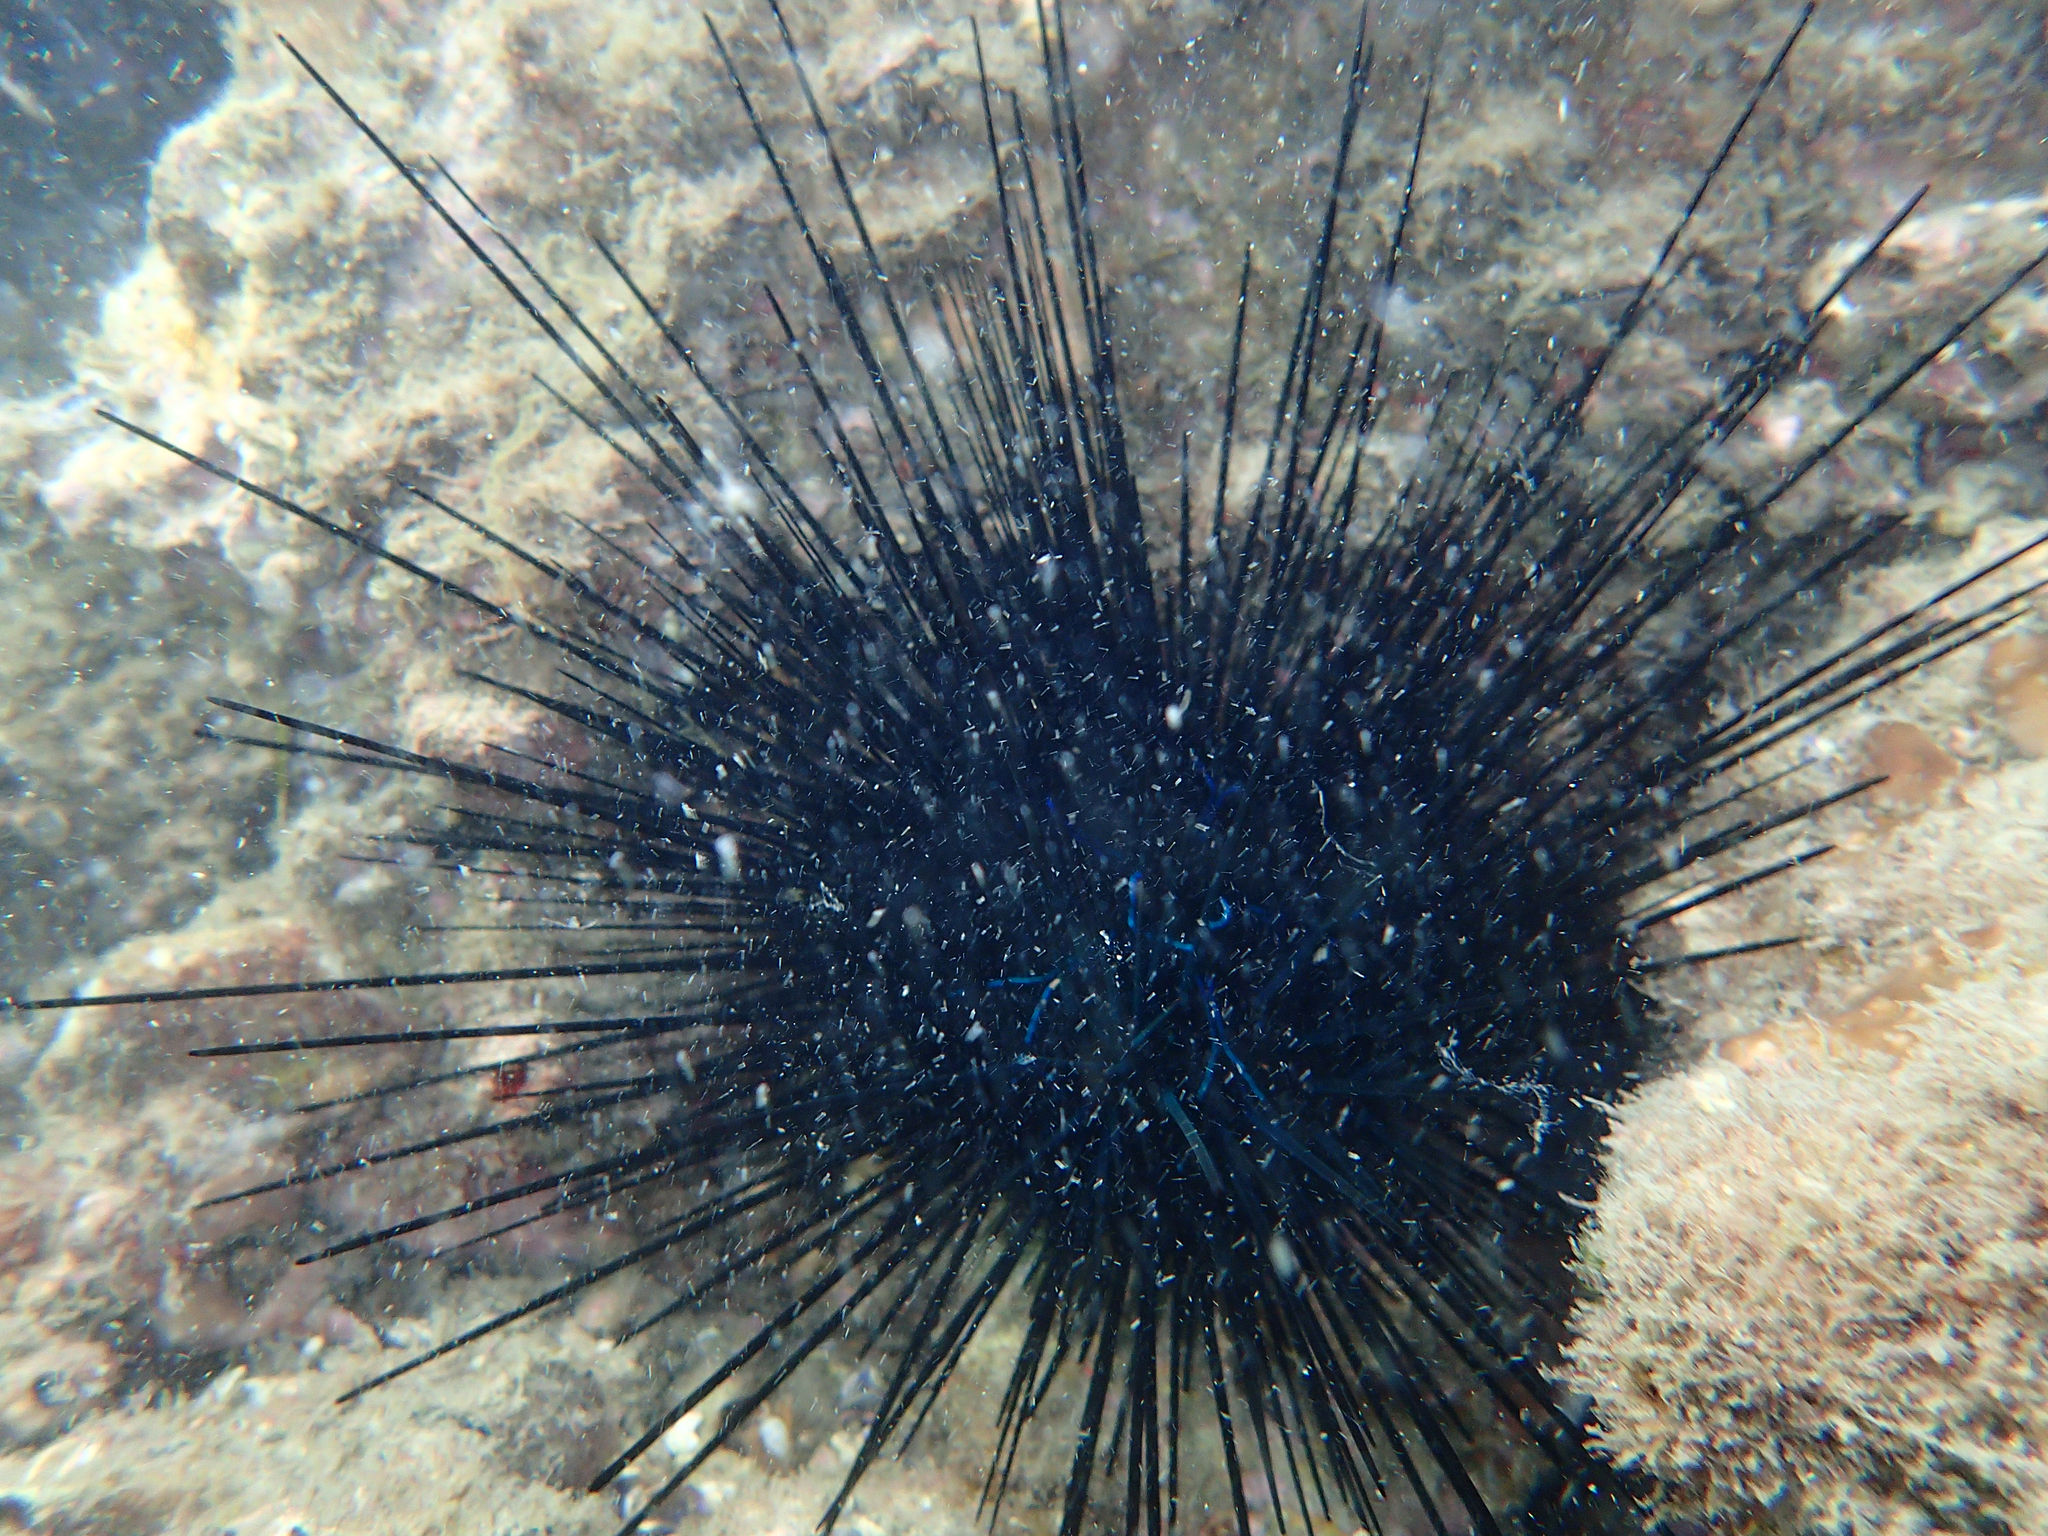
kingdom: Animalia
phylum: Echinodermata
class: Echinoidea
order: Diadematoida
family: Diadematidae
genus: Diadema
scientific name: Diadema savignyi
